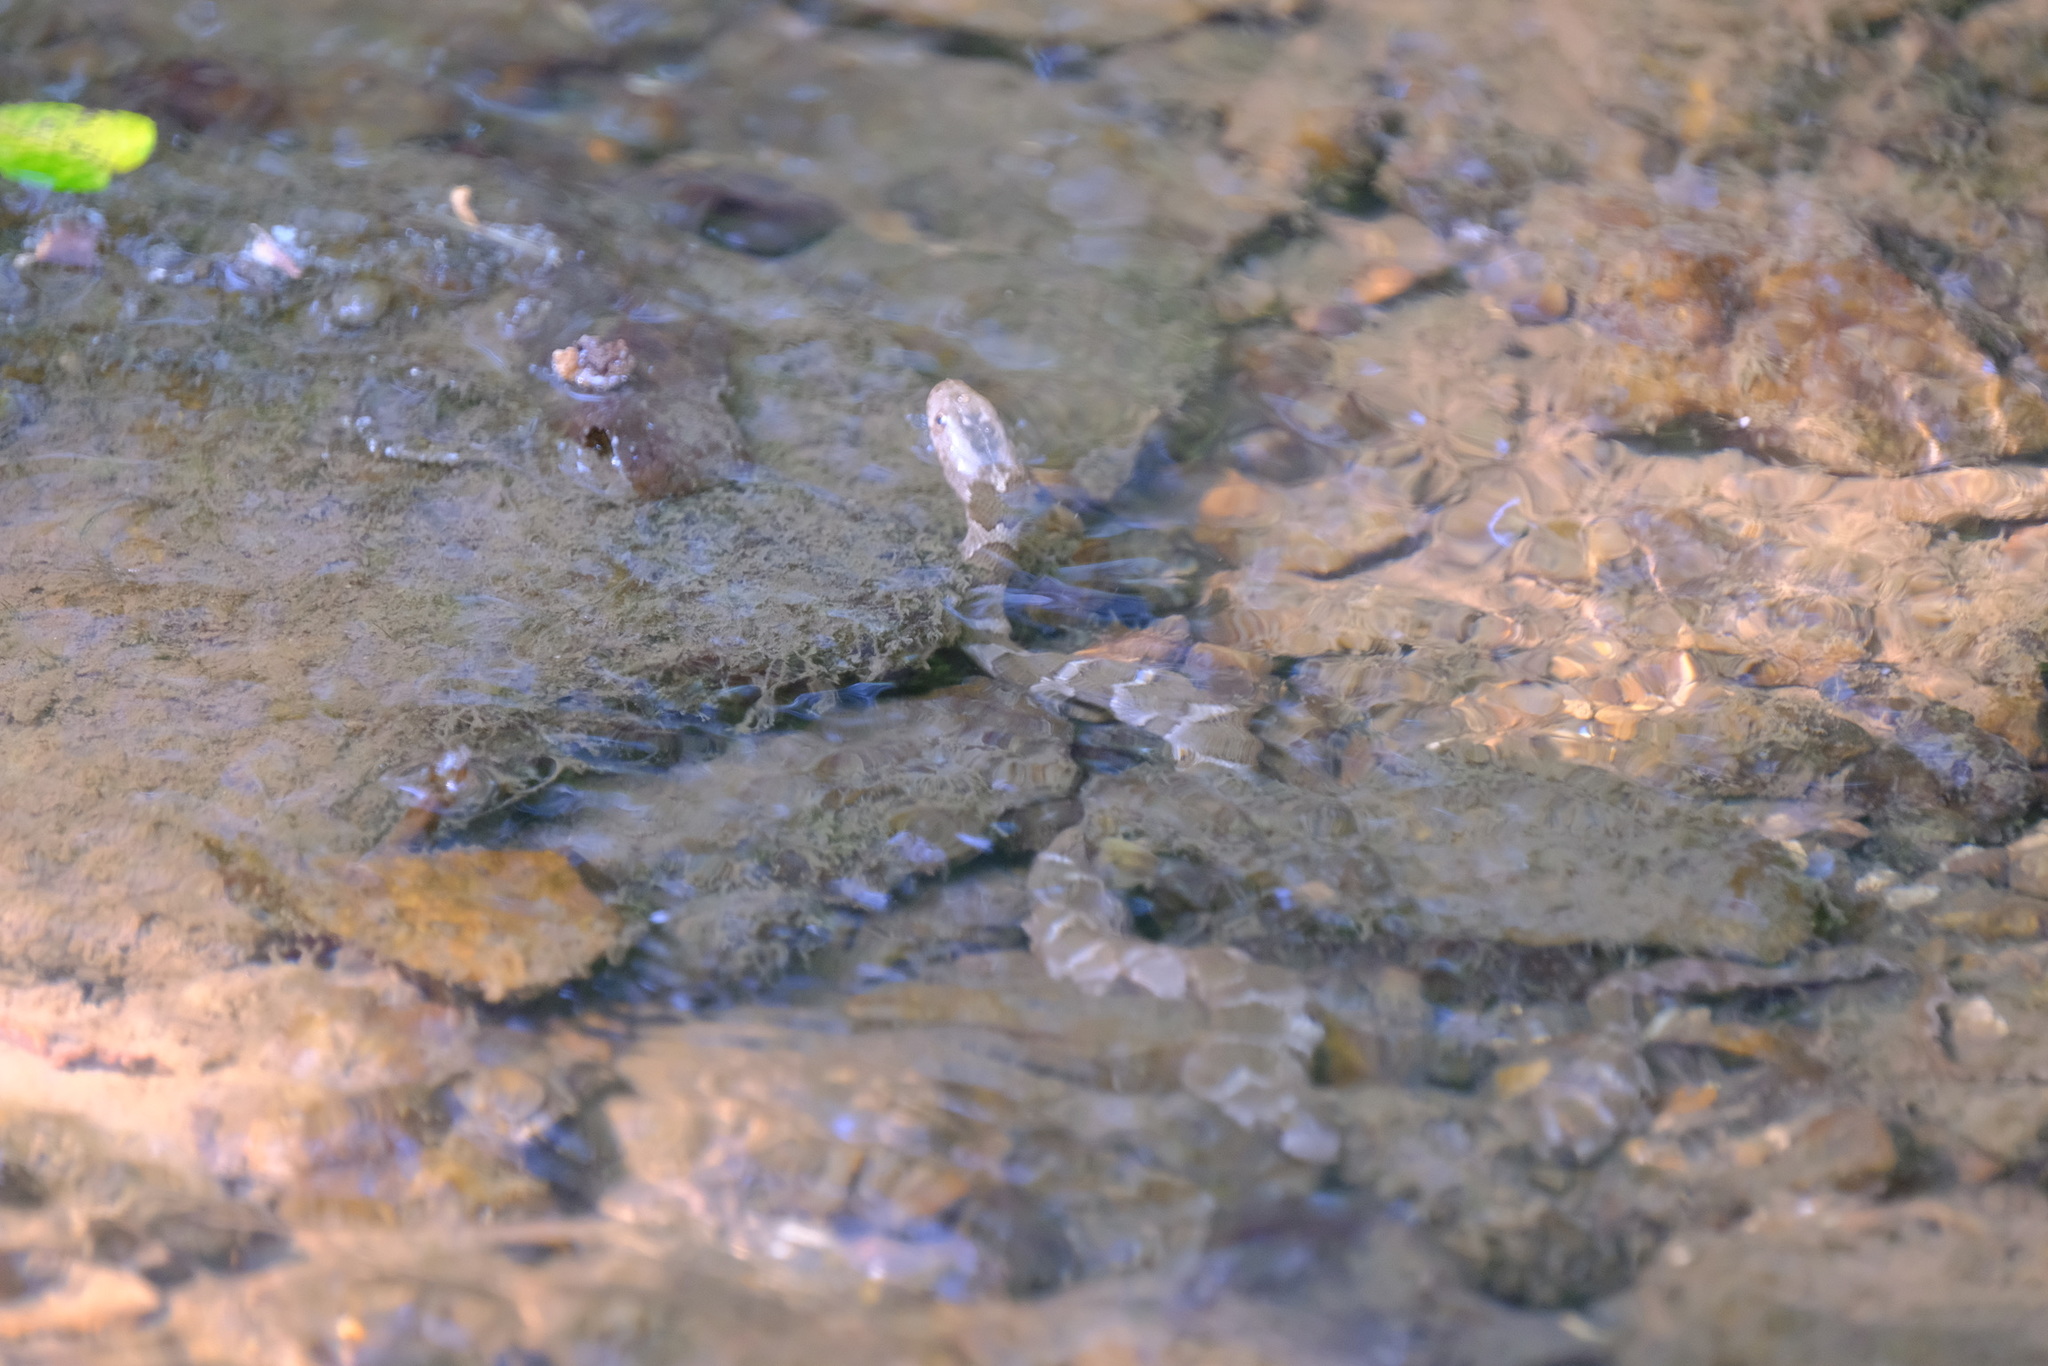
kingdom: Animalia
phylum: Chordata
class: Squamata
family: Colubridae
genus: Nerodia
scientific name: Nerodia sipedon
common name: Northern water snake
